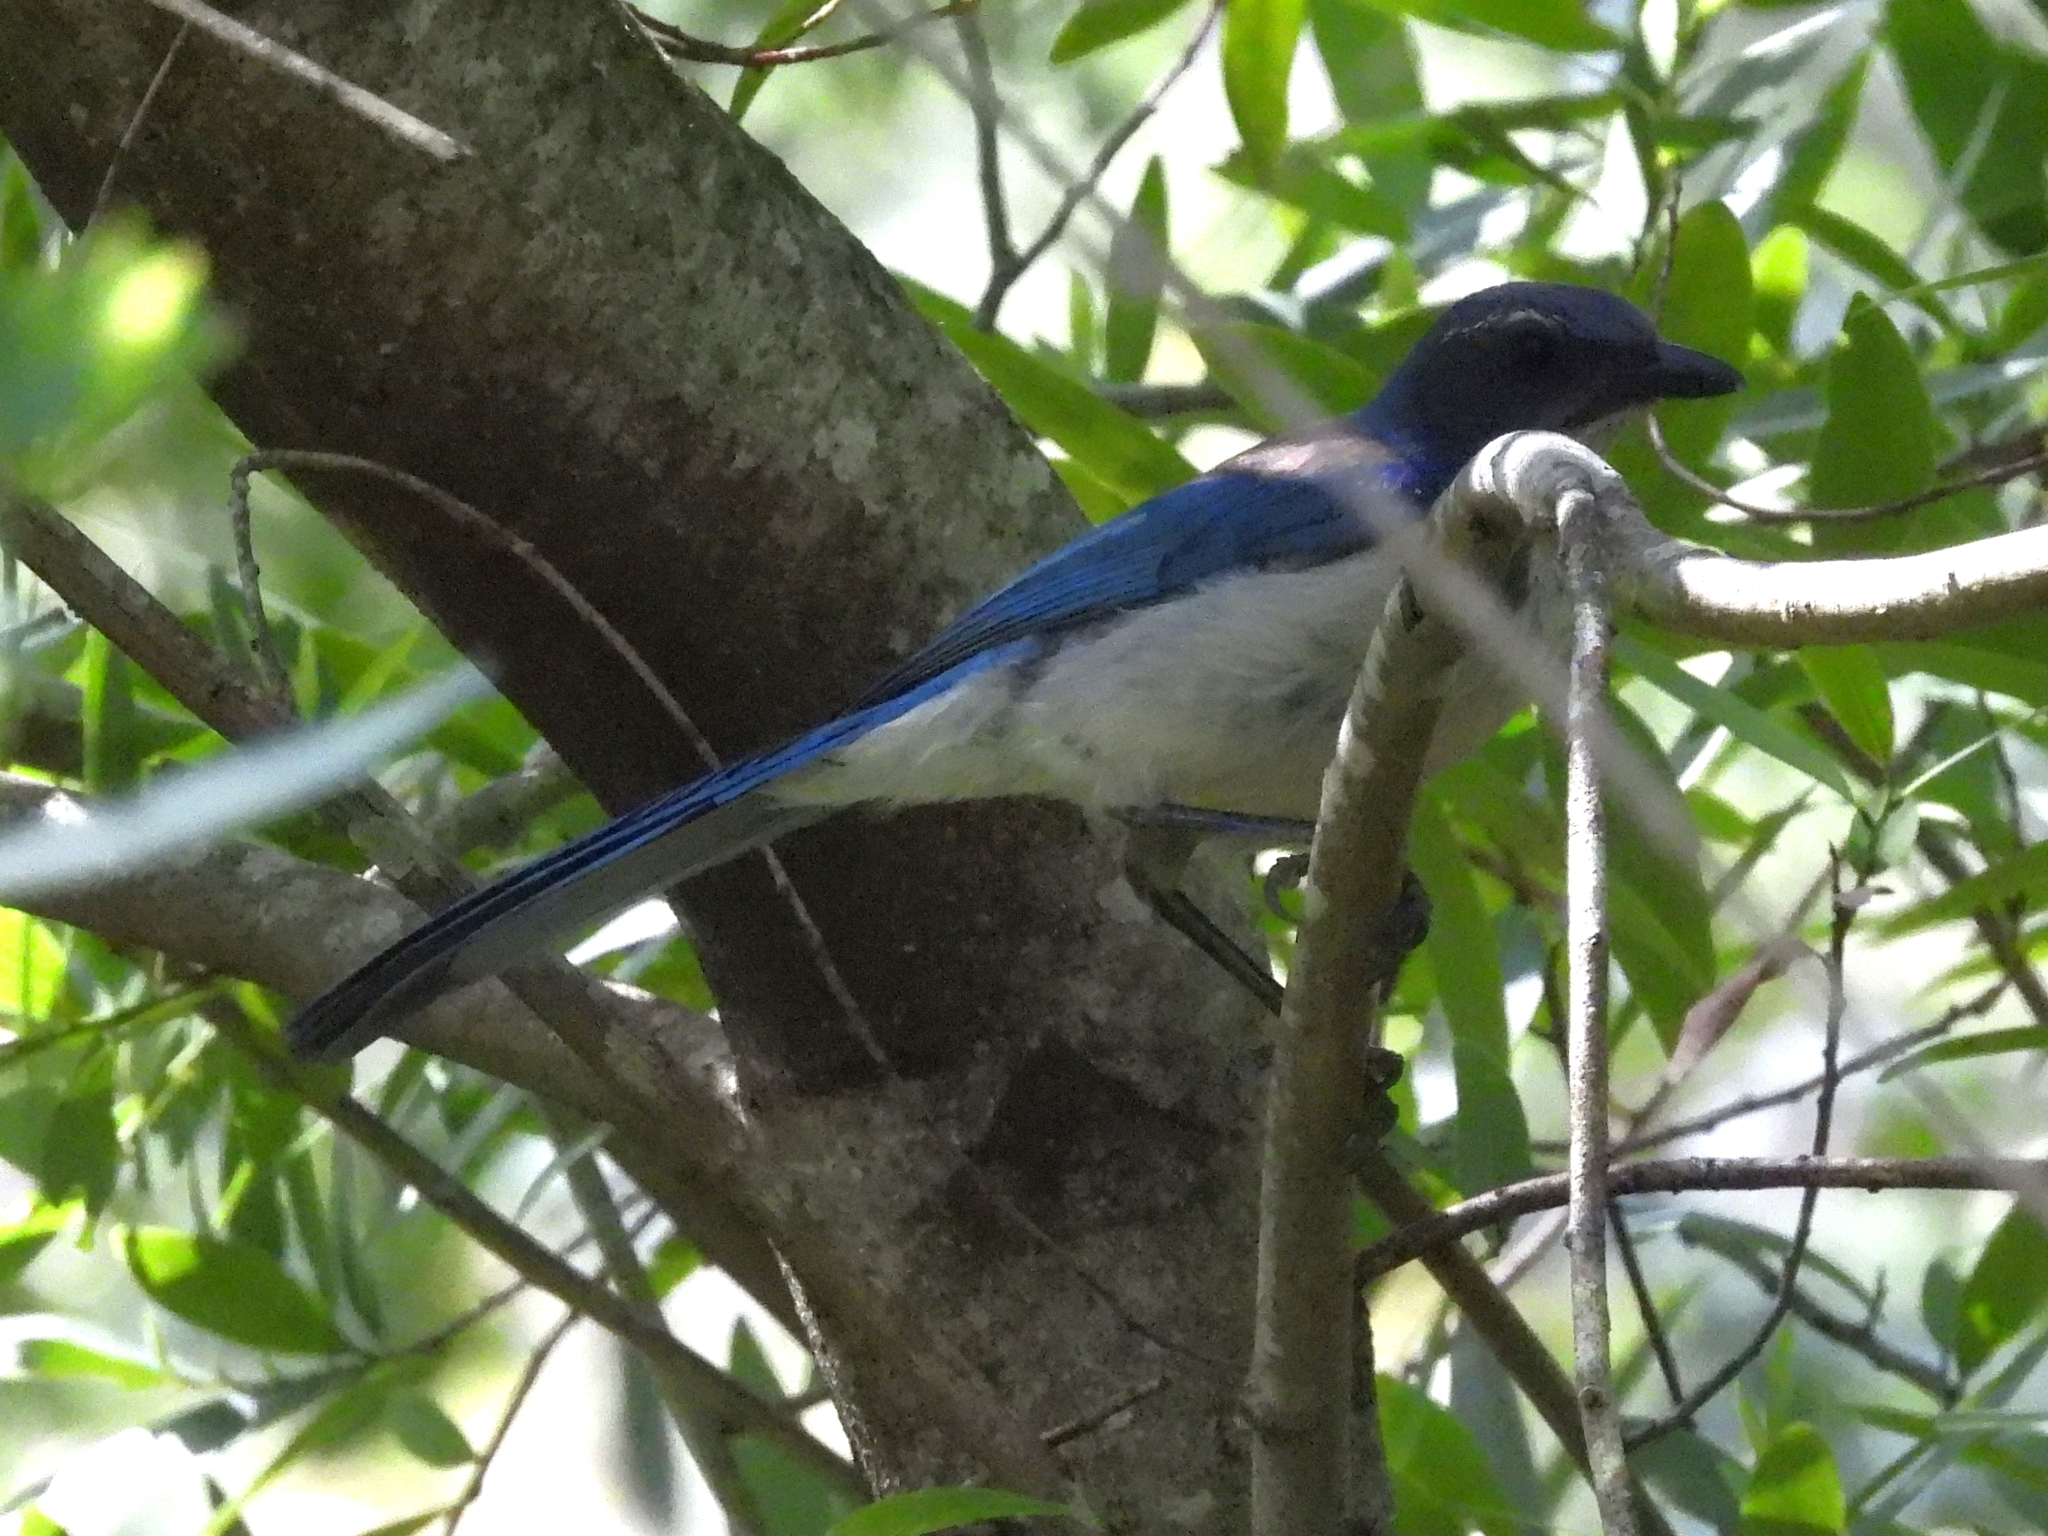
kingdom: Animalia
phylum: Chordata
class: Aves
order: Passeriformes
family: Corvidae
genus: Aphelocoma
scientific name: Aphelocoma californica
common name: California scrub-jay
